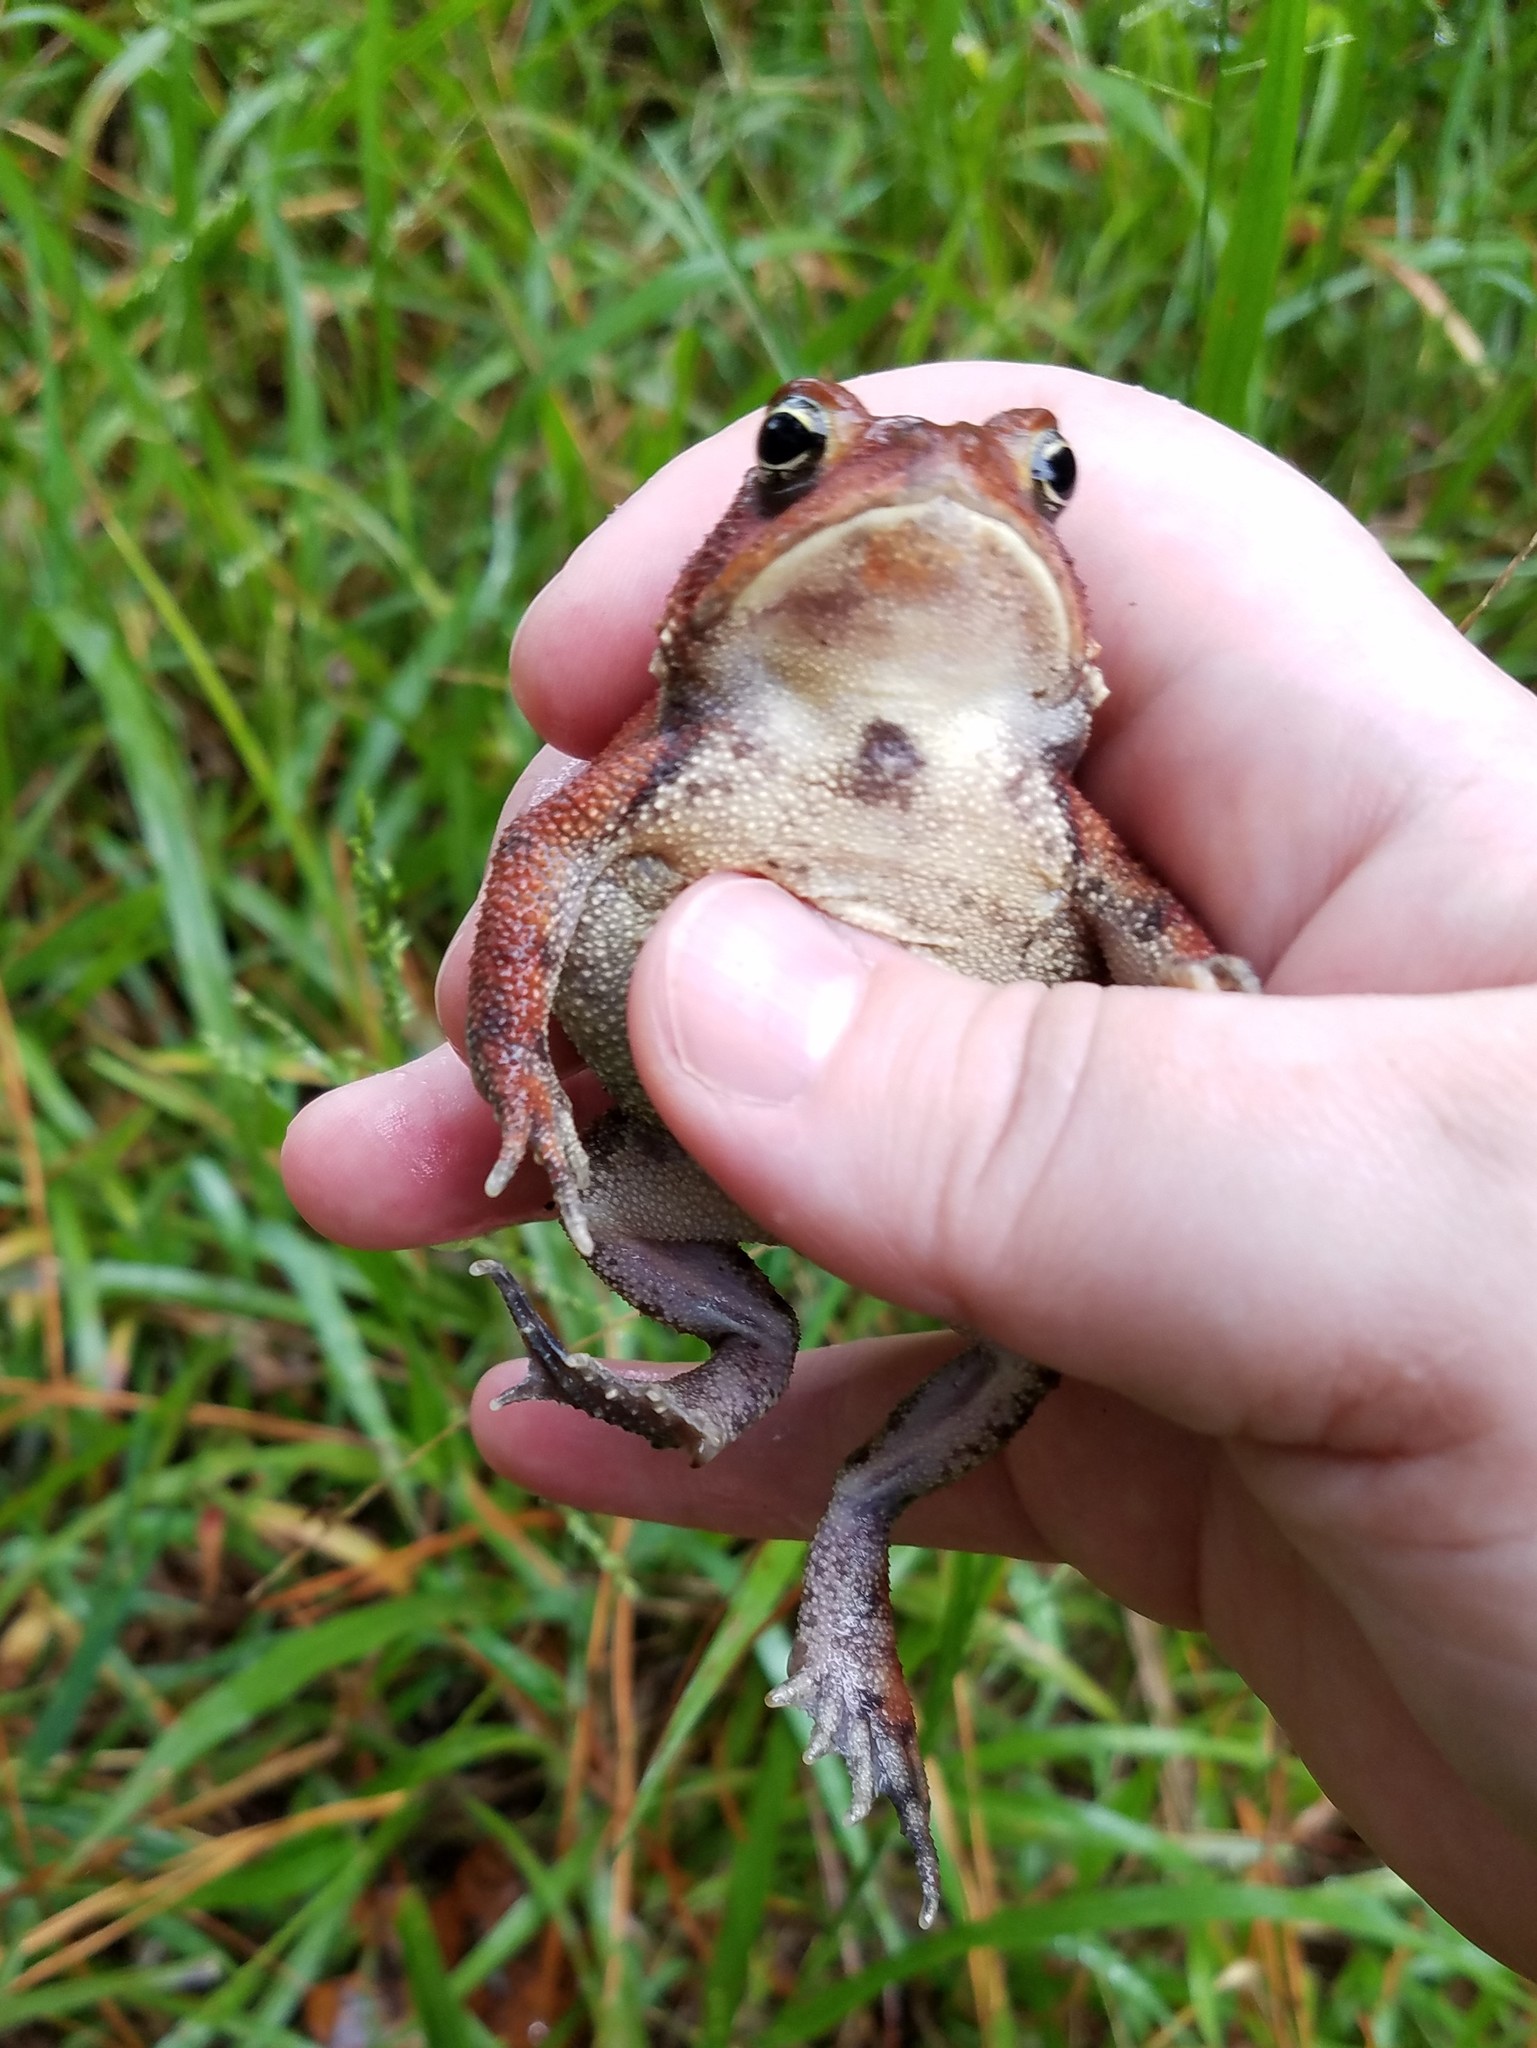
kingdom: Animalia
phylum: Chordata
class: Amphibia
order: Anura
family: Bufonidae
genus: Anaxyrus
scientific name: Anaxyrus americanus
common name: American toad
